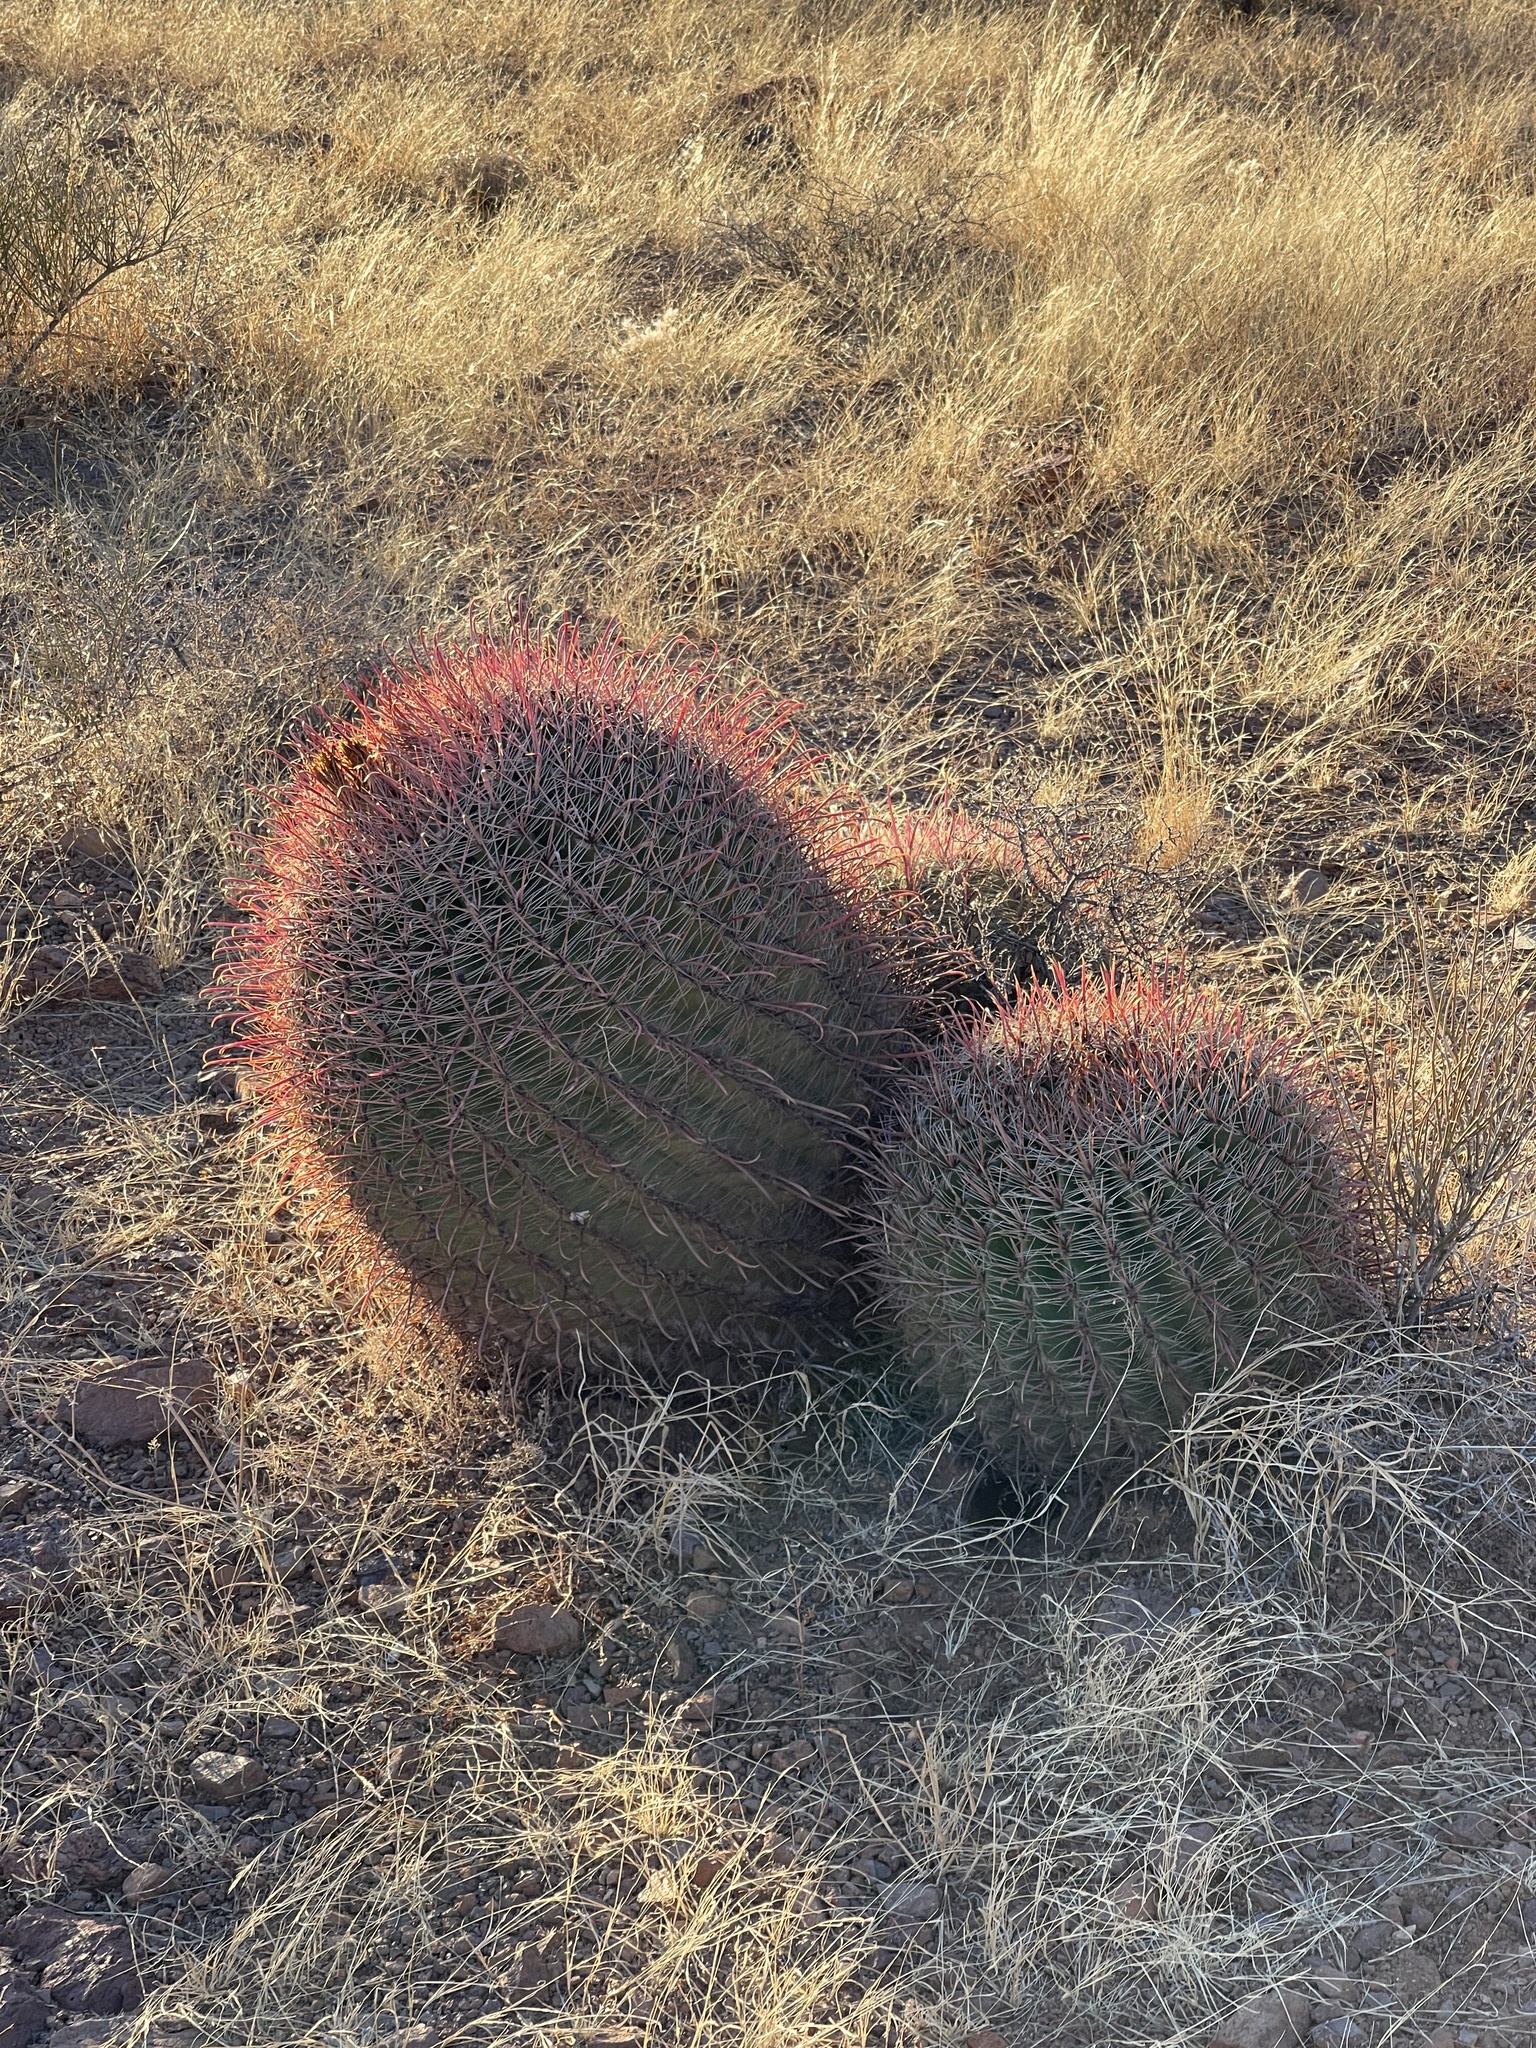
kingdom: Plantae
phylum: Tracheophyta
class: Magnoliopsida
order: Caryophyllales
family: Cactaceae
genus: Ferocactus
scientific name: Ferocactus wislizeni
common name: Candy barrel cactus
